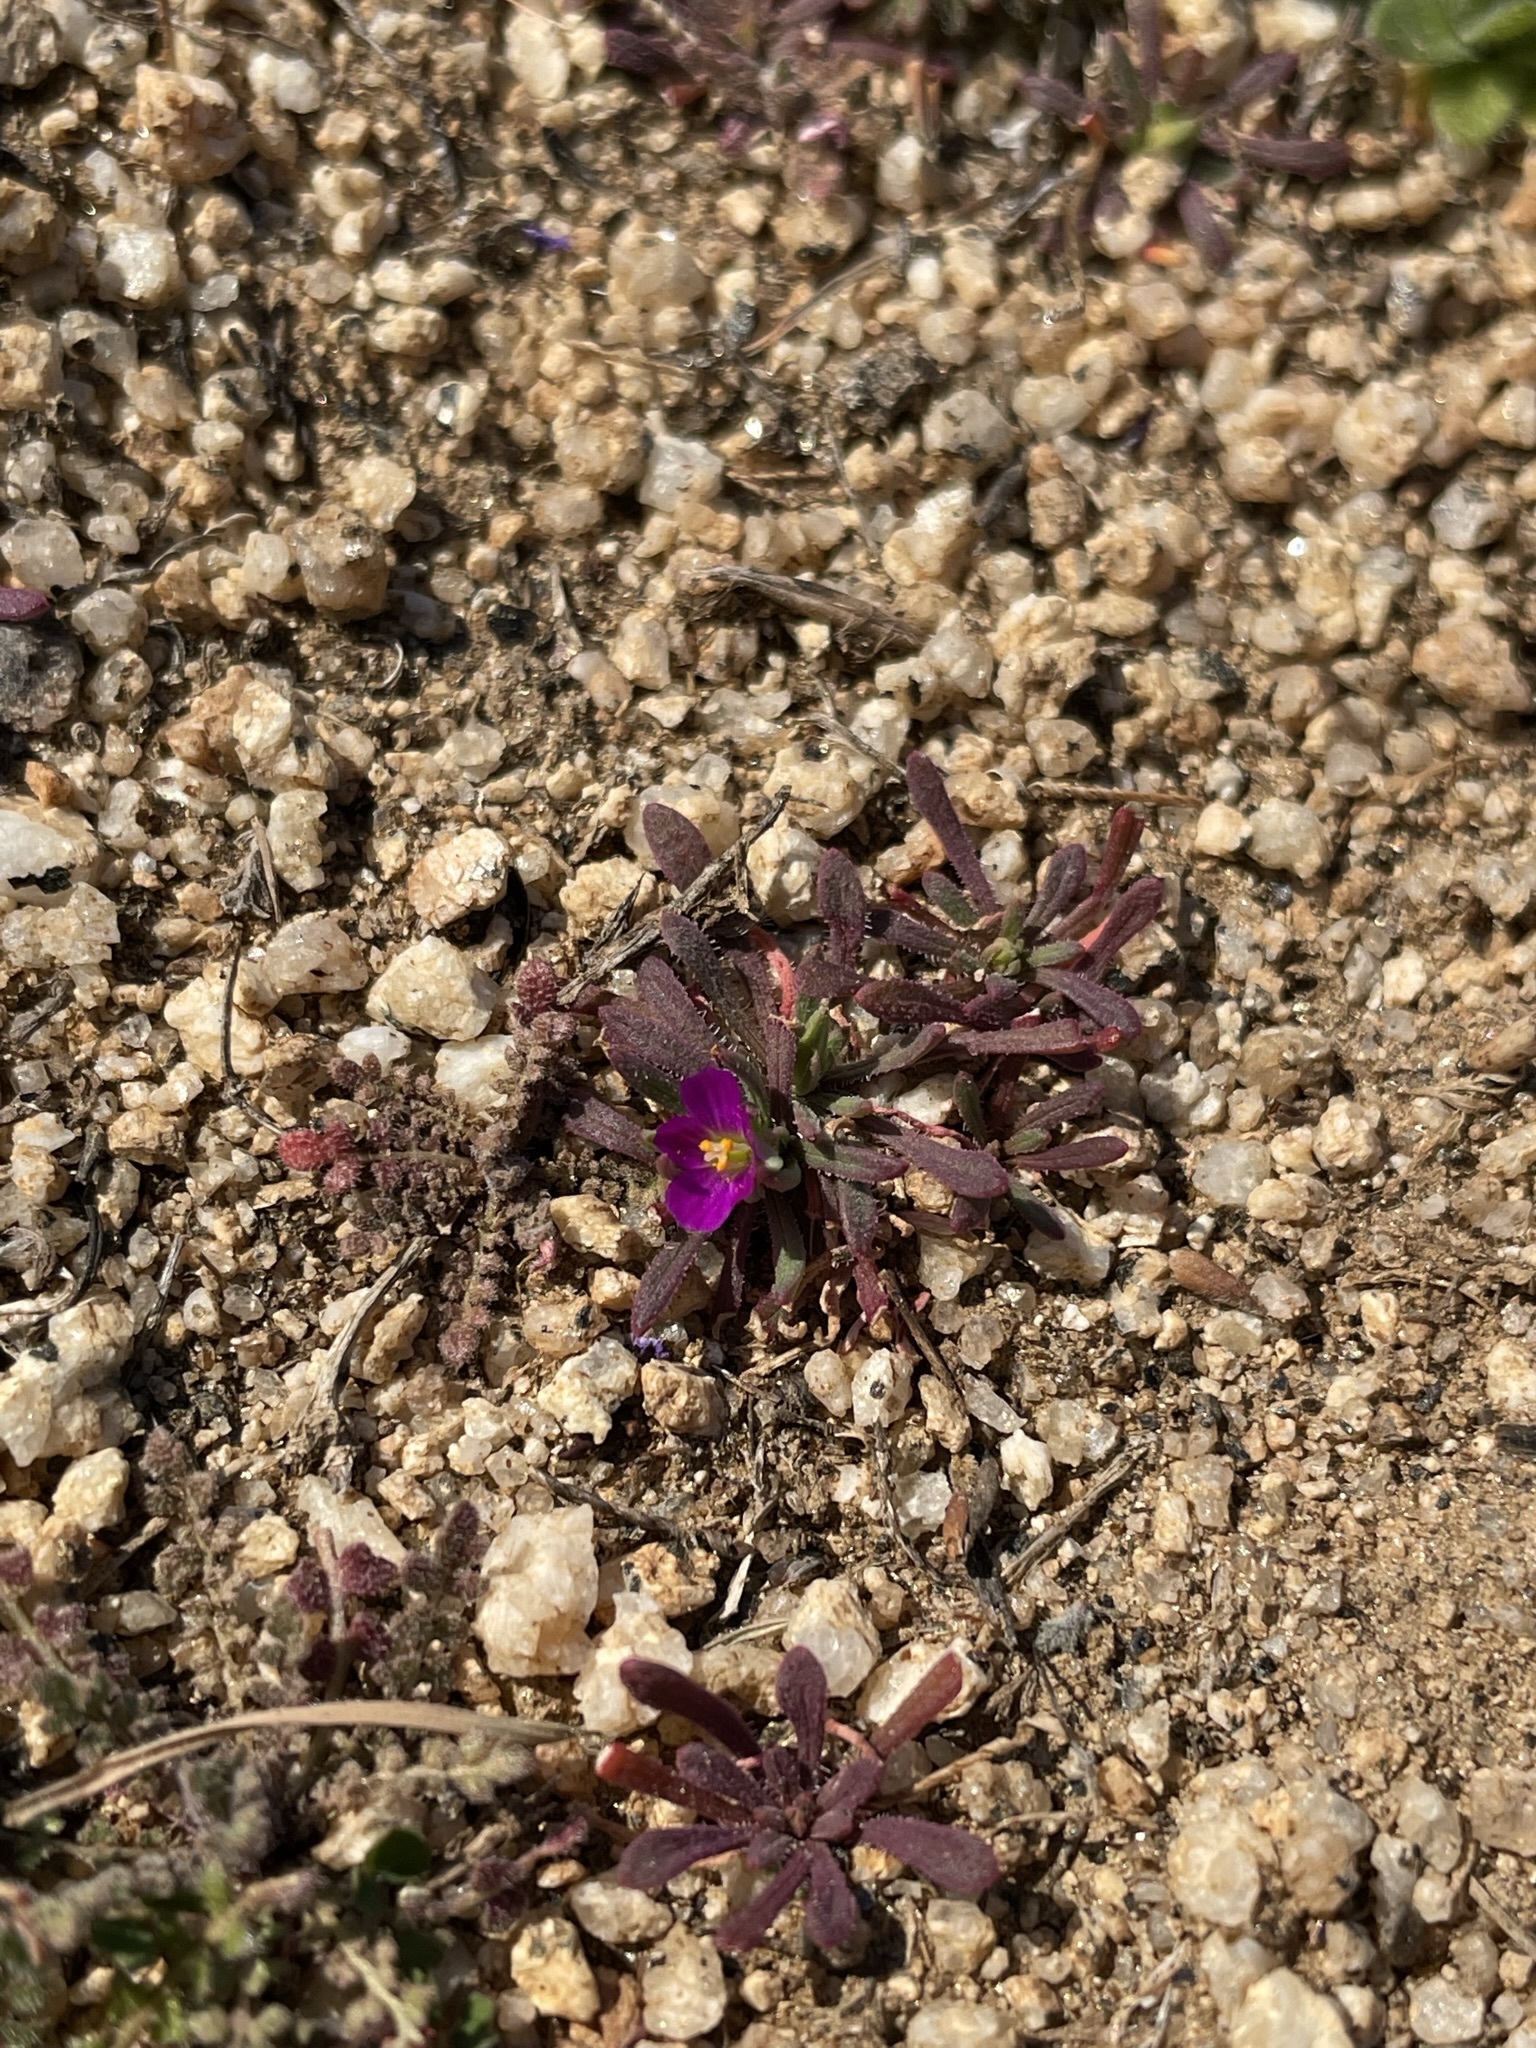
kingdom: Plantae
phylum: Tracheophyta
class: Magnoliopsida
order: Caryophyllales
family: Montiaceae
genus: Calandrinia
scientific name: Calandrinia menziesii
